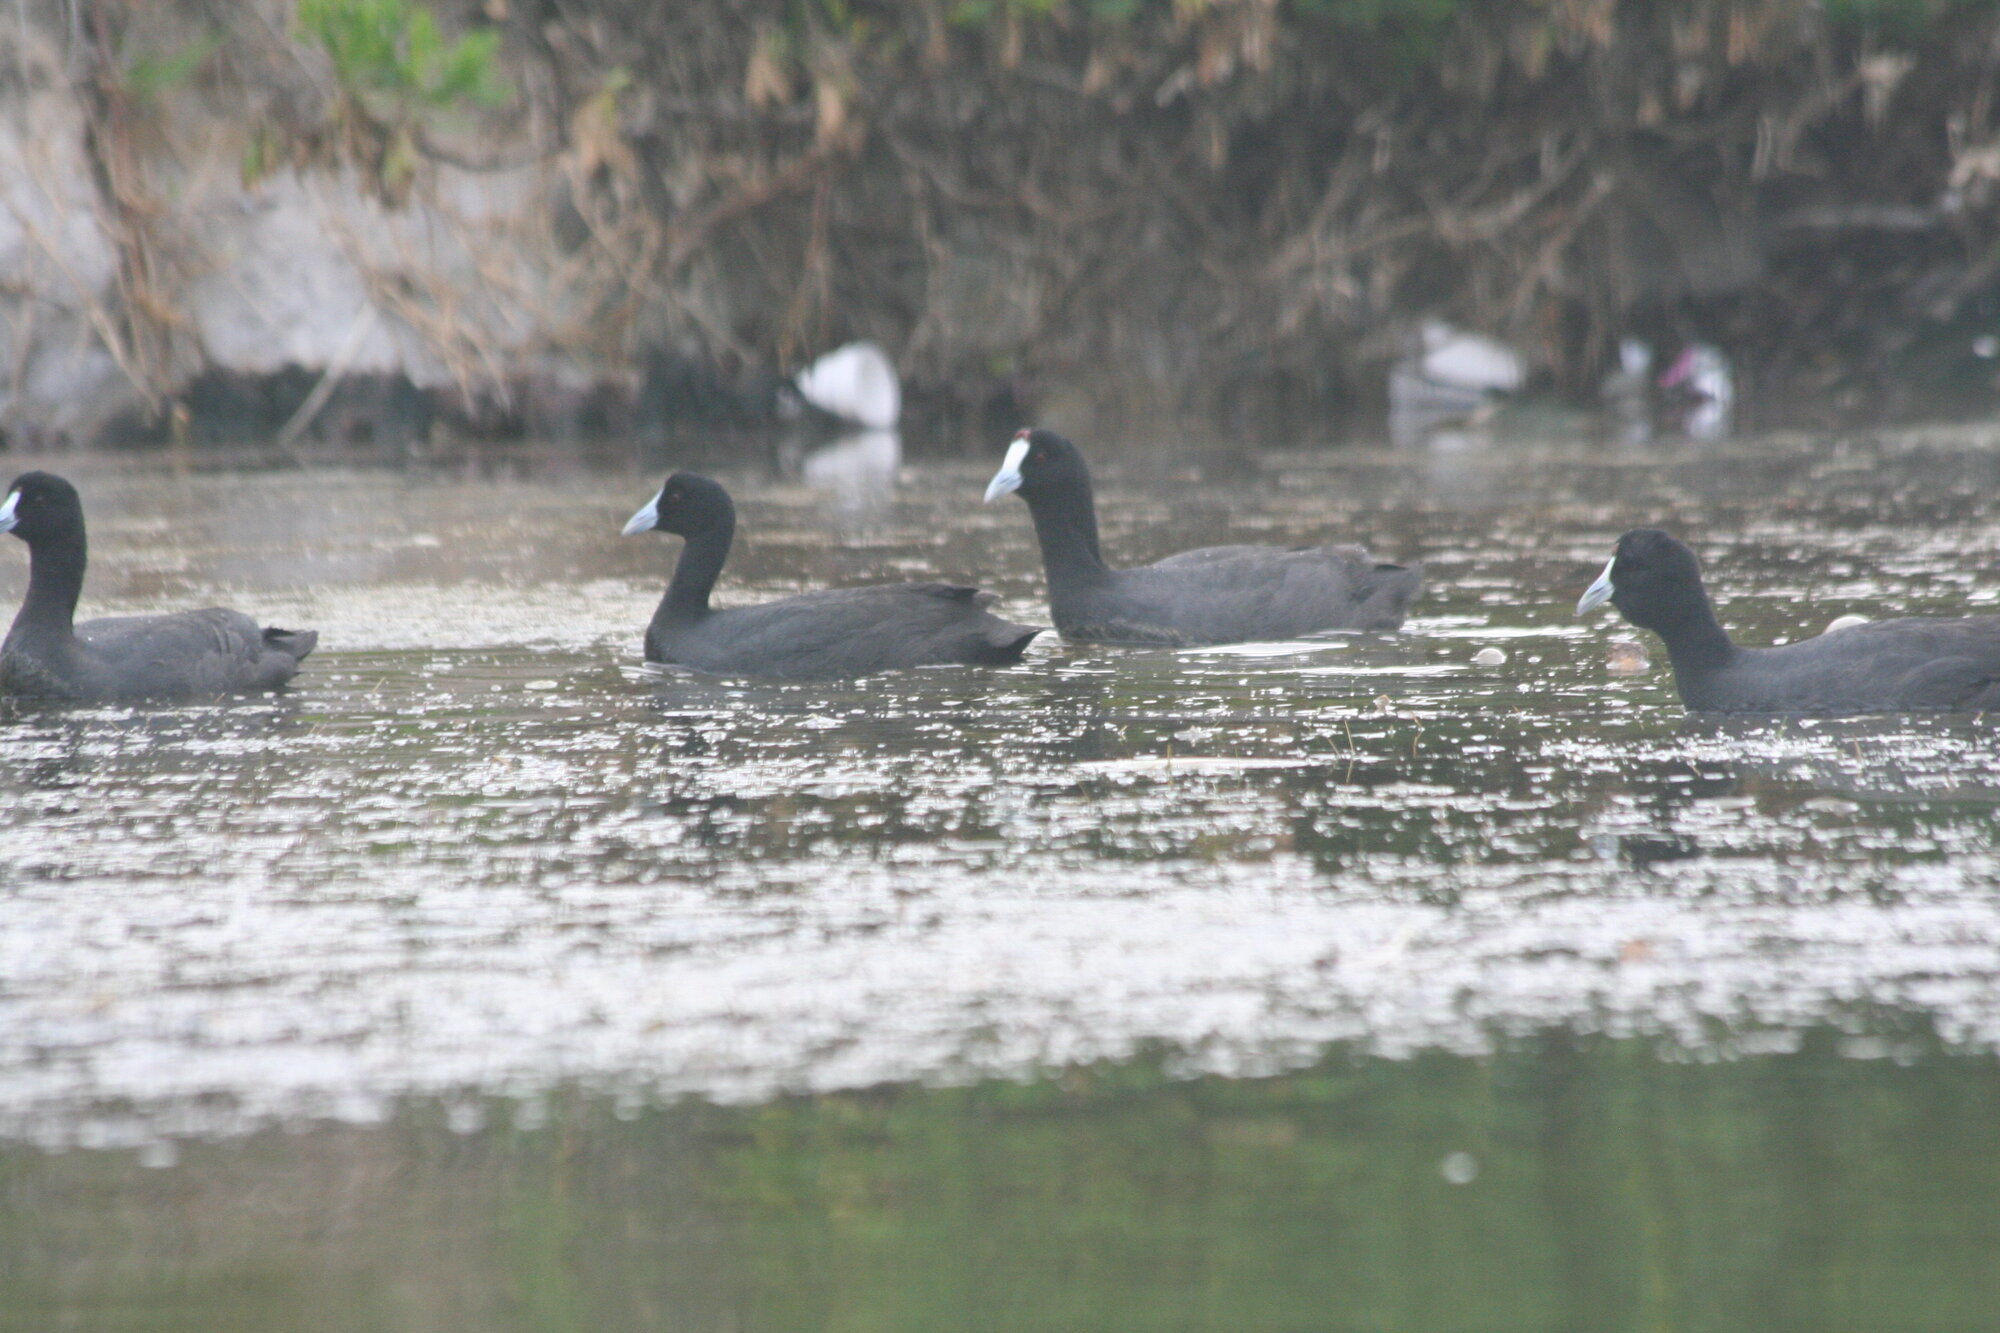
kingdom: Animalia
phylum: Chordata
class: Aves
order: Gruiformes
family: Rallidae
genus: Fulica
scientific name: Fulica cristata
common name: Red-knobbed coot
